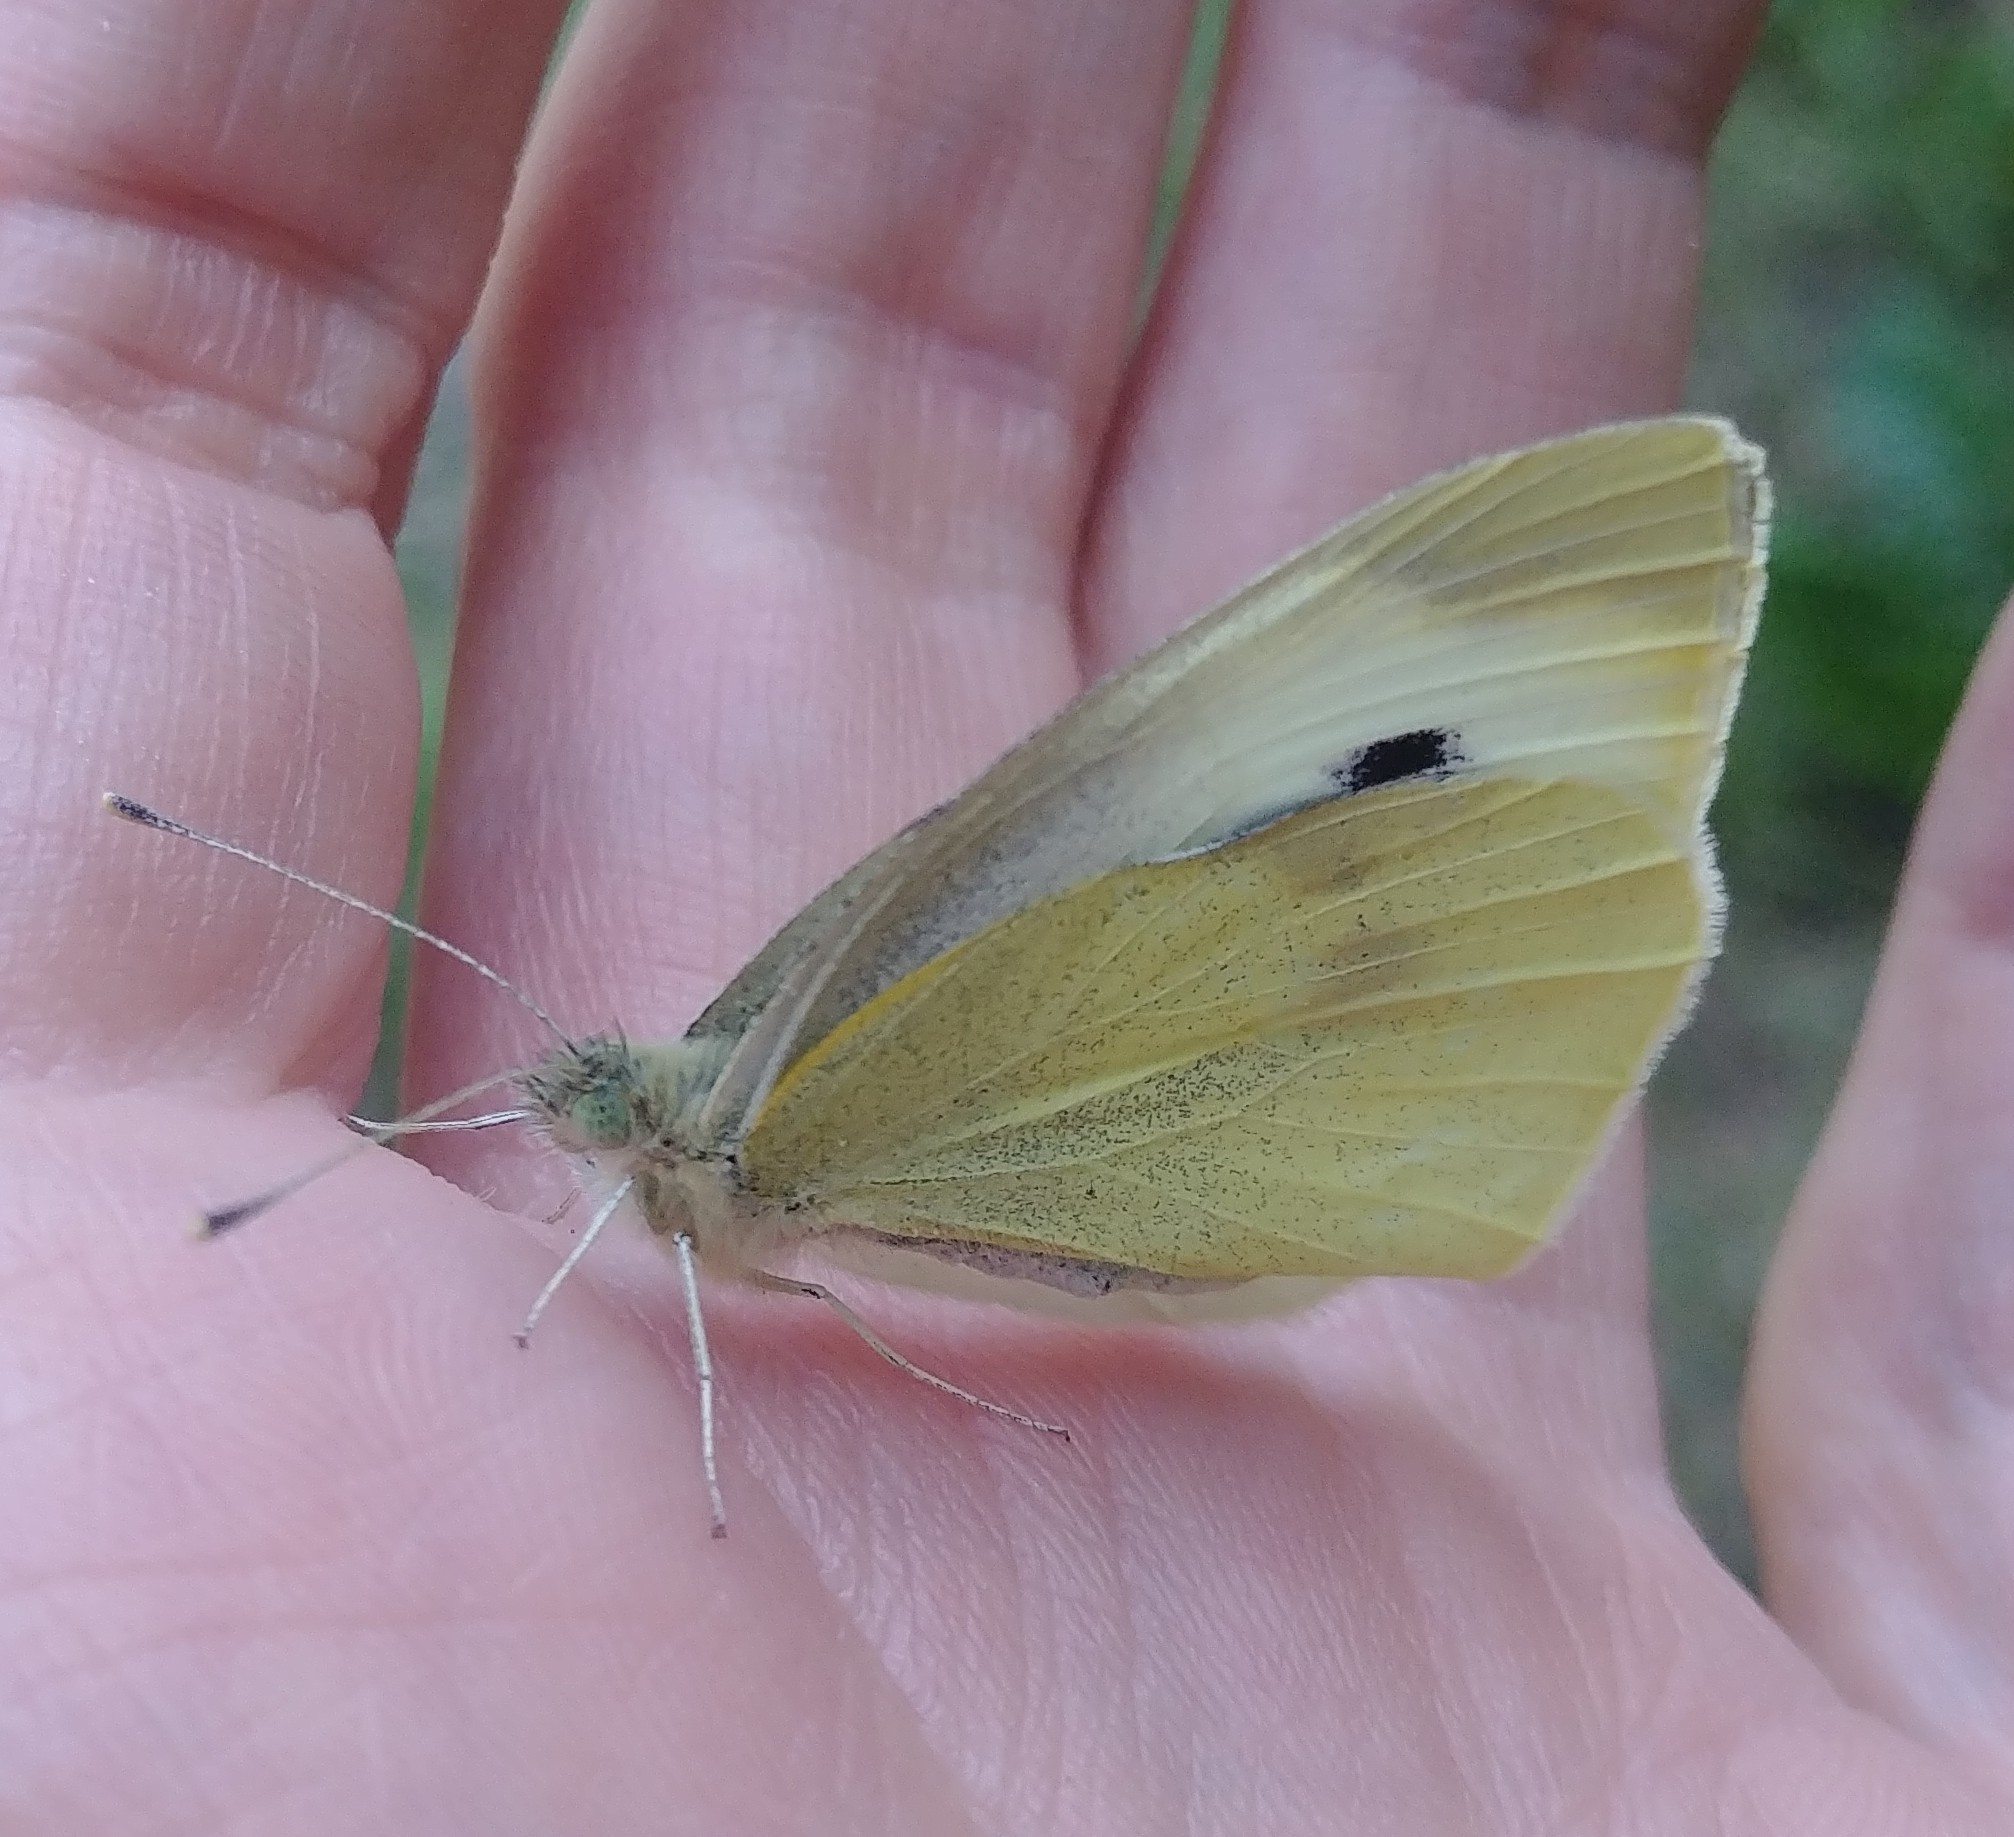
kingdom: Animalia
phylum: Arthropoda
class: Insecta
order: Lepidoptera
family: Pieridae
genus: Pieris
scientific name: Pieris rapae
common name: Small white
